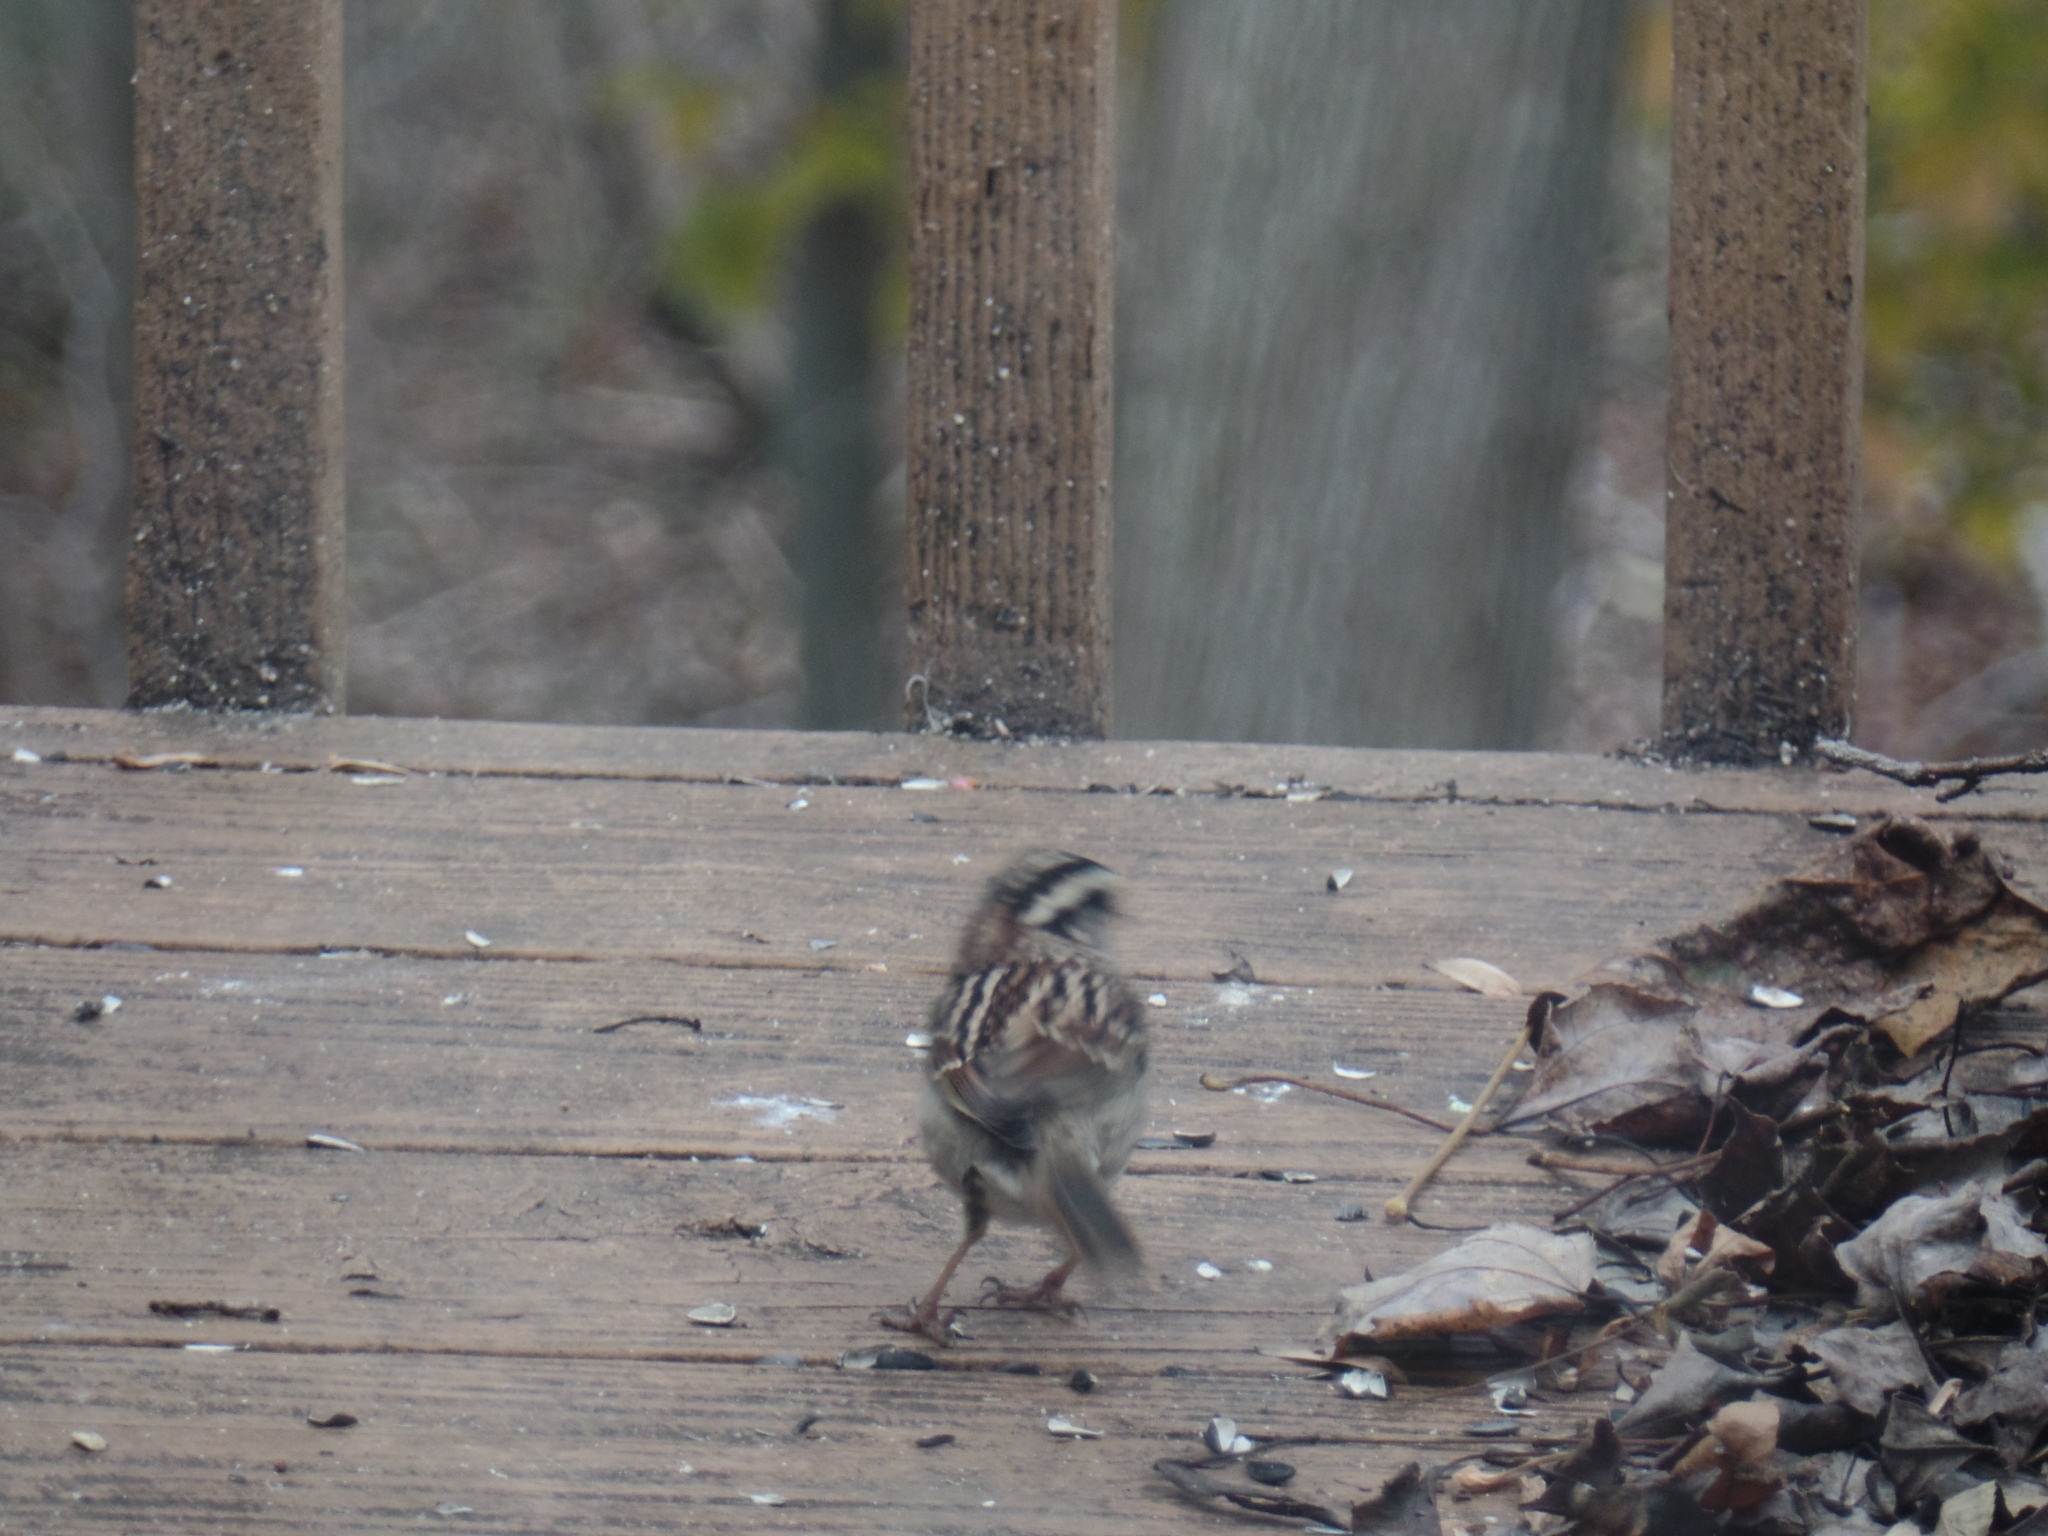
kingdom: Animalia
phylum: Chordata
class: Aves
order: Passeriformes
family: Passerellidae
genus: Zonotrichia
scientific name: Zonotrichia albicollis
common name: White-throated sparrow
